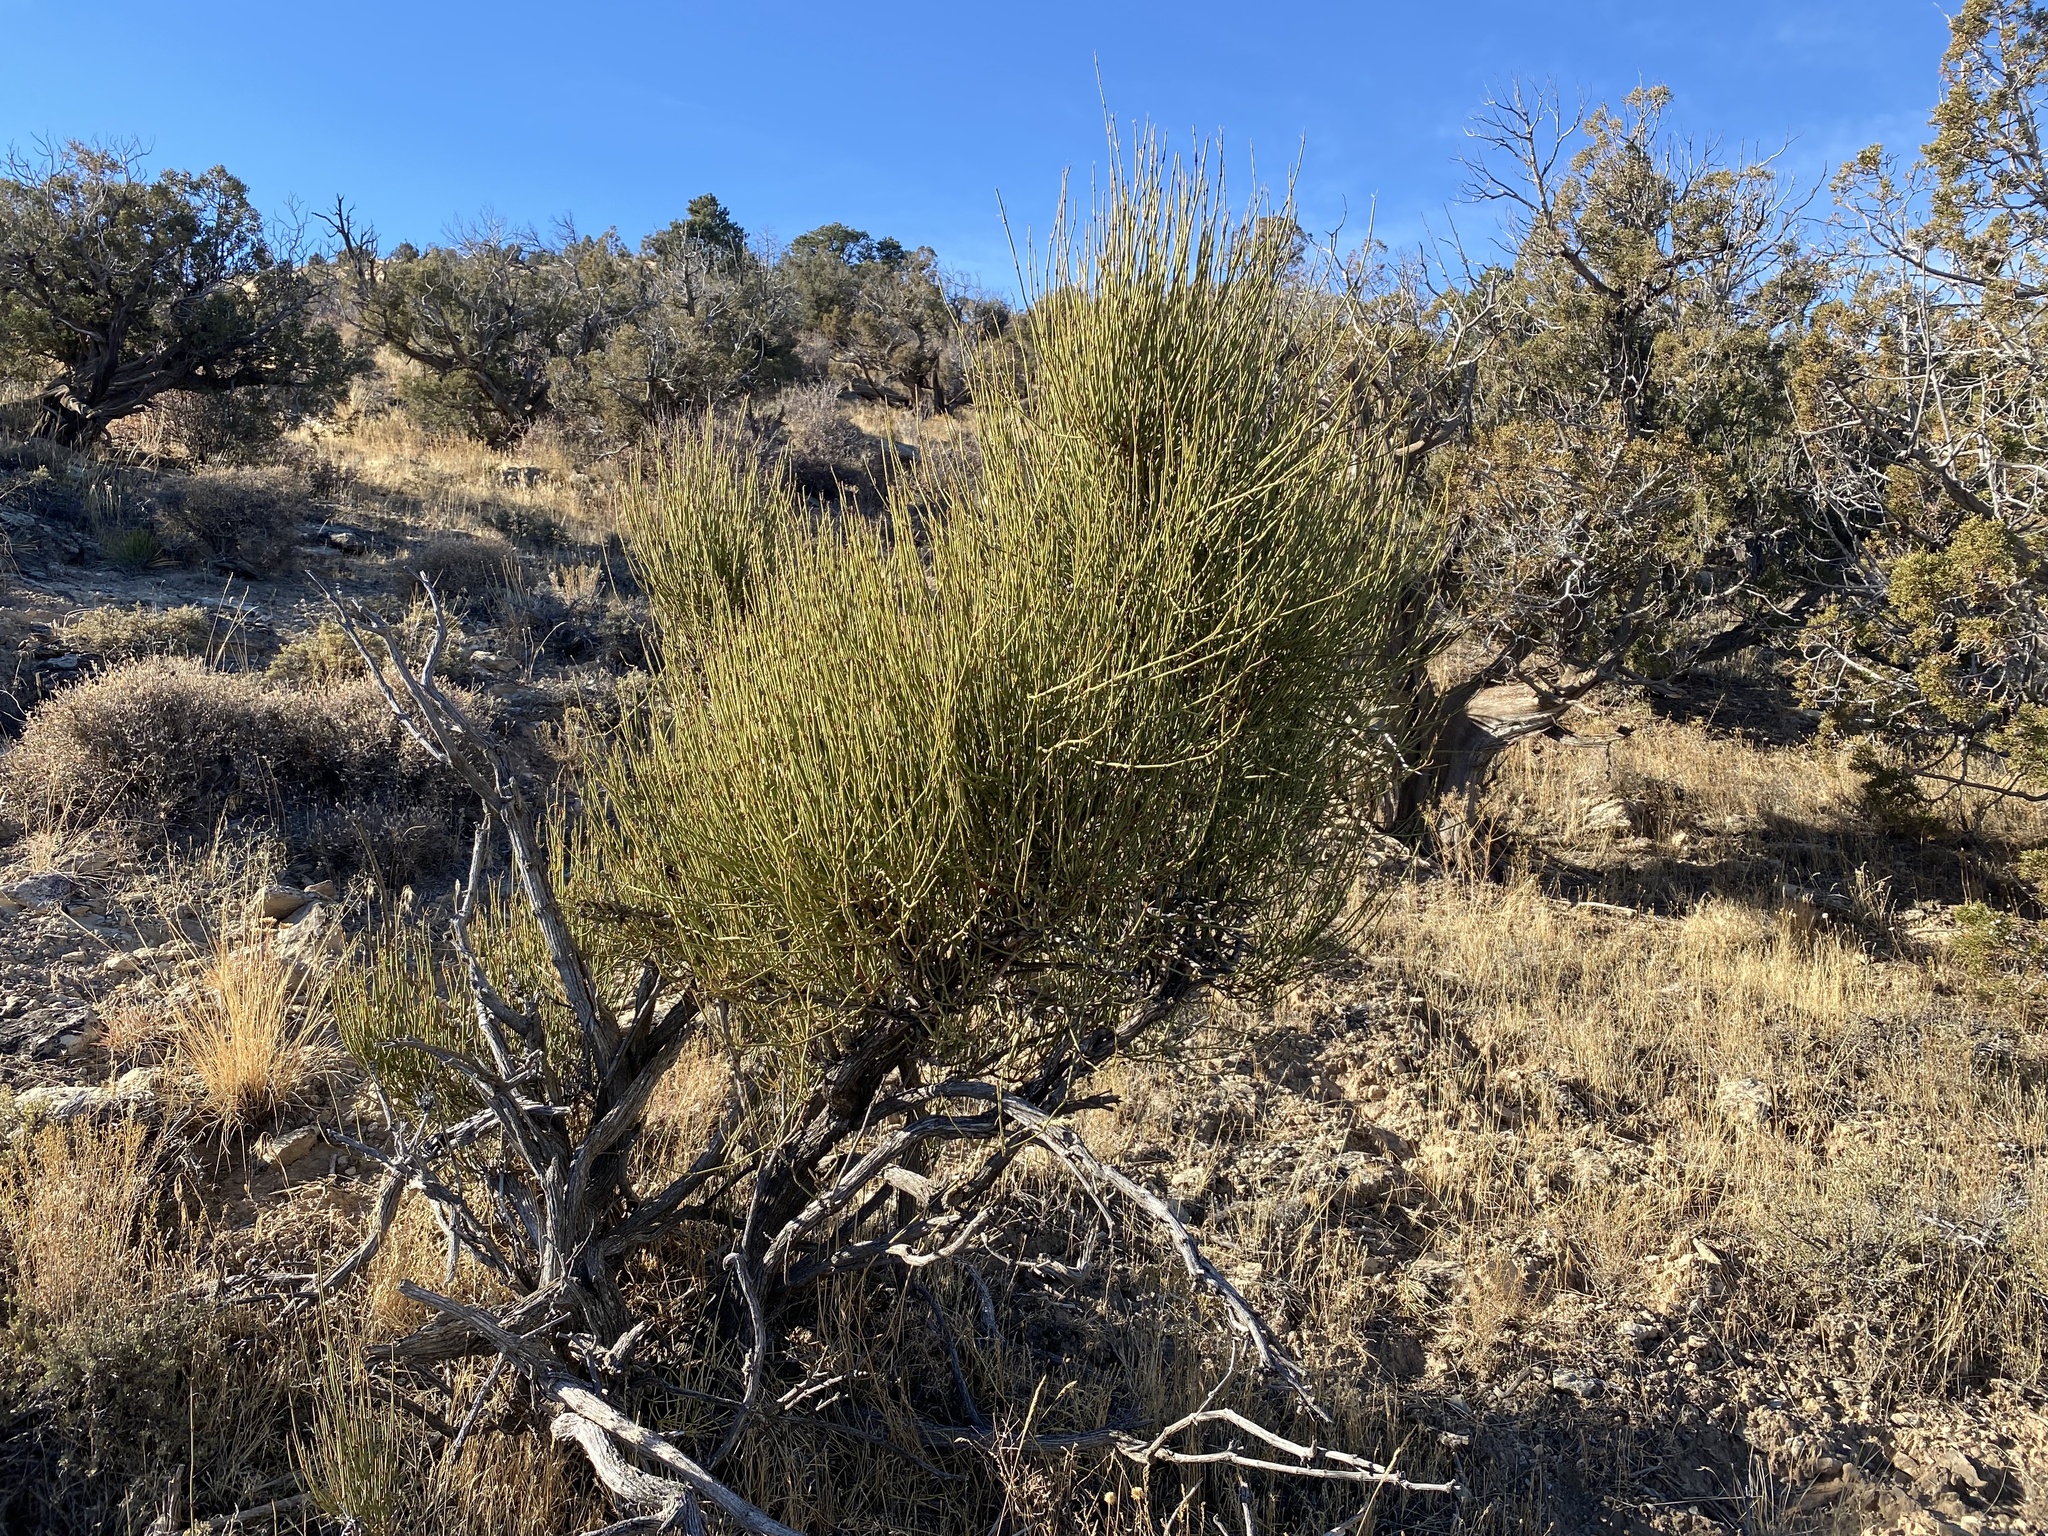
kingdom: Plantae
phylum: Tracheophyta
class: Gnetopsida
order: Ephedrales
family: Ephedraceae
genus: Ephedra
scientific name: Ephedra viridis
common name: Green ephedra
